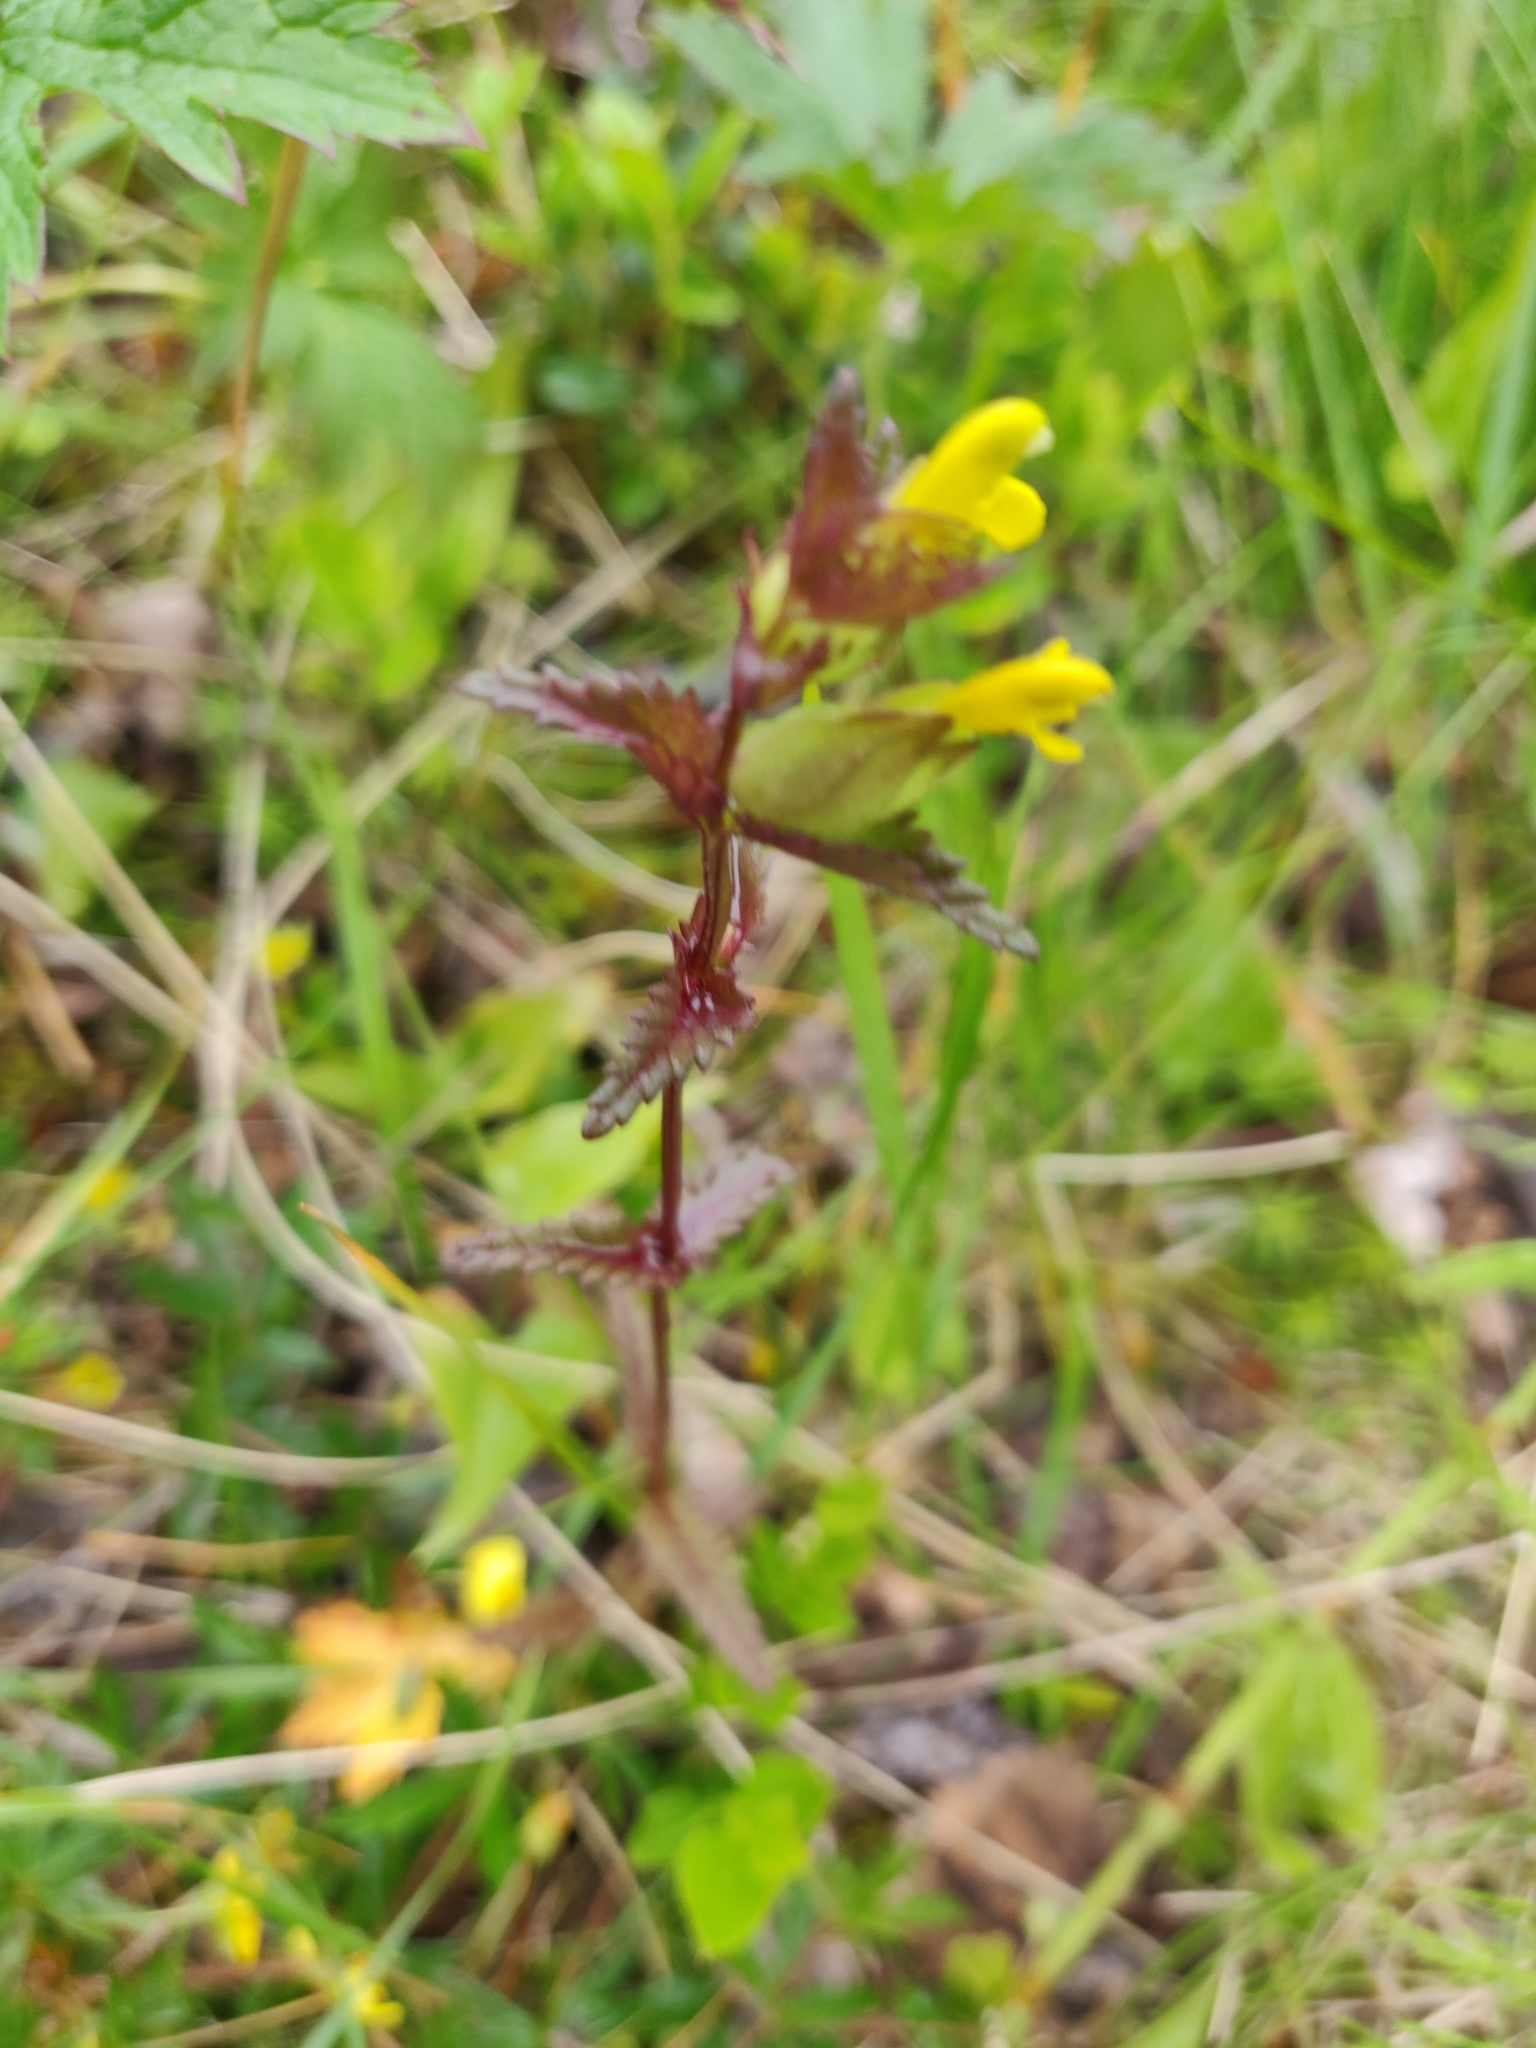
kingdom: Plantae
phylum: Tracheophyta
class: Magnoliopsida
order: Lamiales
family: Orobanchaceae
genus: Rhinanthus
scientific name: Rhinanthus minor
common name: Yellow-rattle
